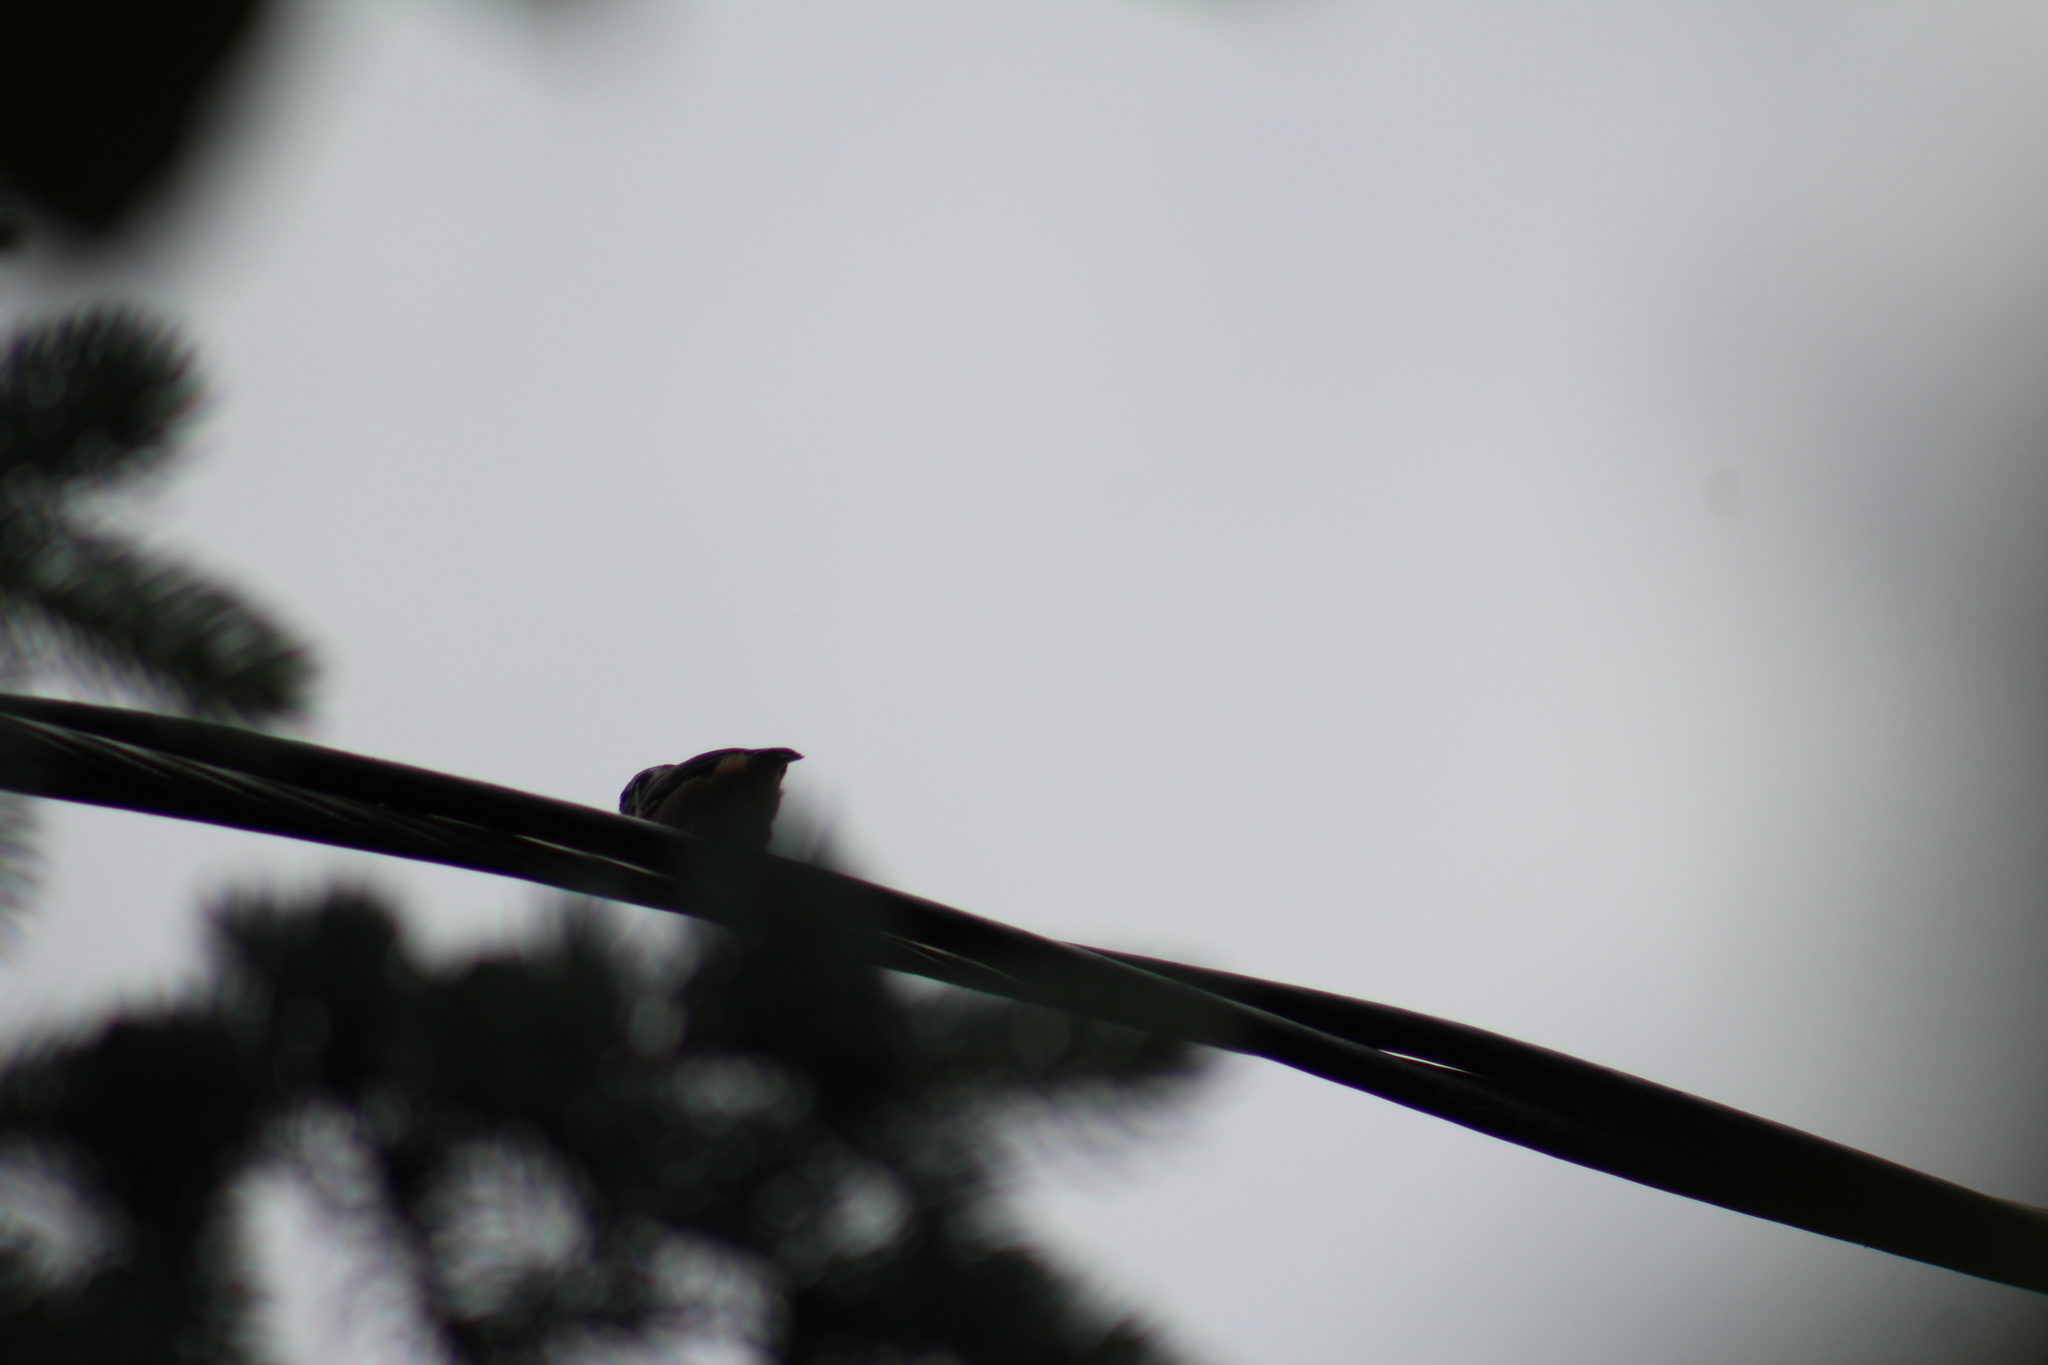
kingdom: Animalia
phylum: Chordata
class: Aves
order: Passeriformes
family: Sittidae
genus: Sitta
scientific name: Sitta canadensis
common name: Red-breasted nuthatch
